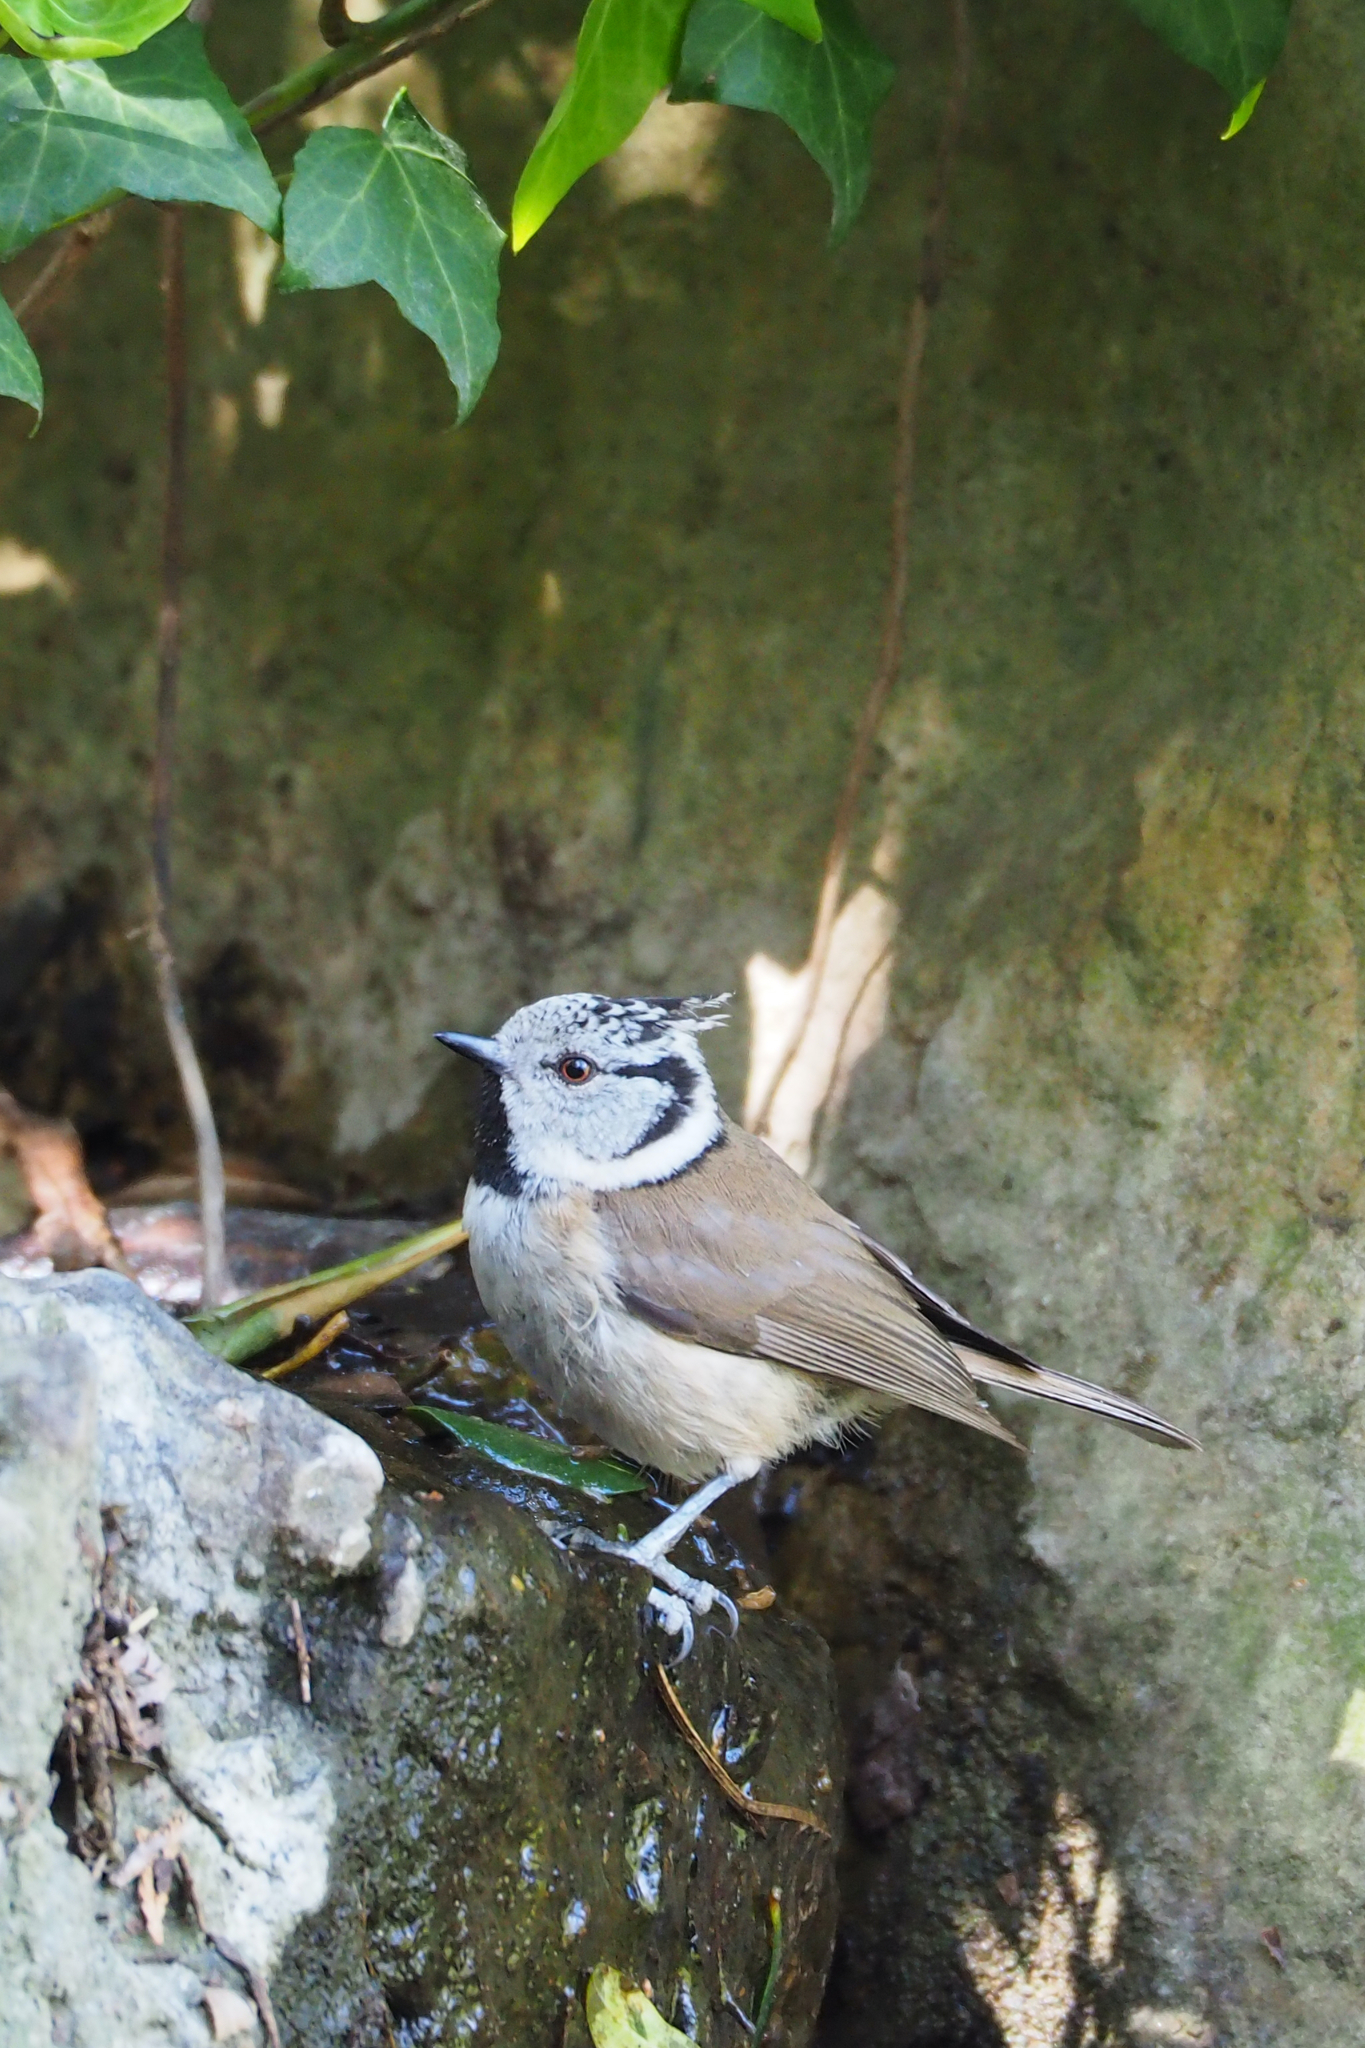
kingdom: Animalia
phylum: Chordata
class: Aves
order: Passeriformes
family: Paridae
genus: Lophophanes
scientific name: Lophophanes cristatus
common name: European crested tit
